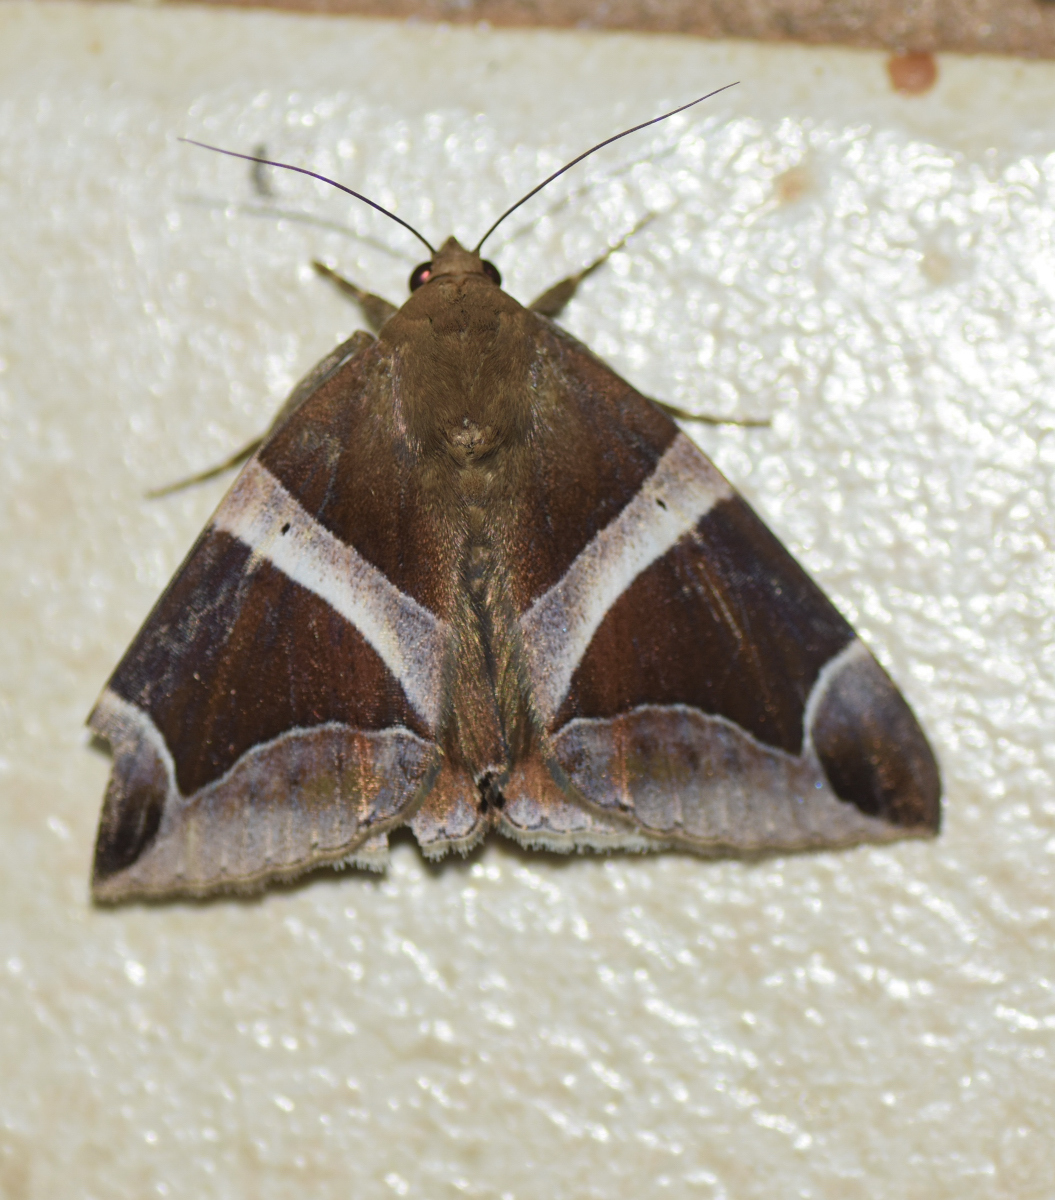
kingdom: Animalia
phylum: Arthropoda
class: Insecta
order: Lepidoptera
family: Erebidae
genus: Parallelia
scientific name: Parallelia expediens
